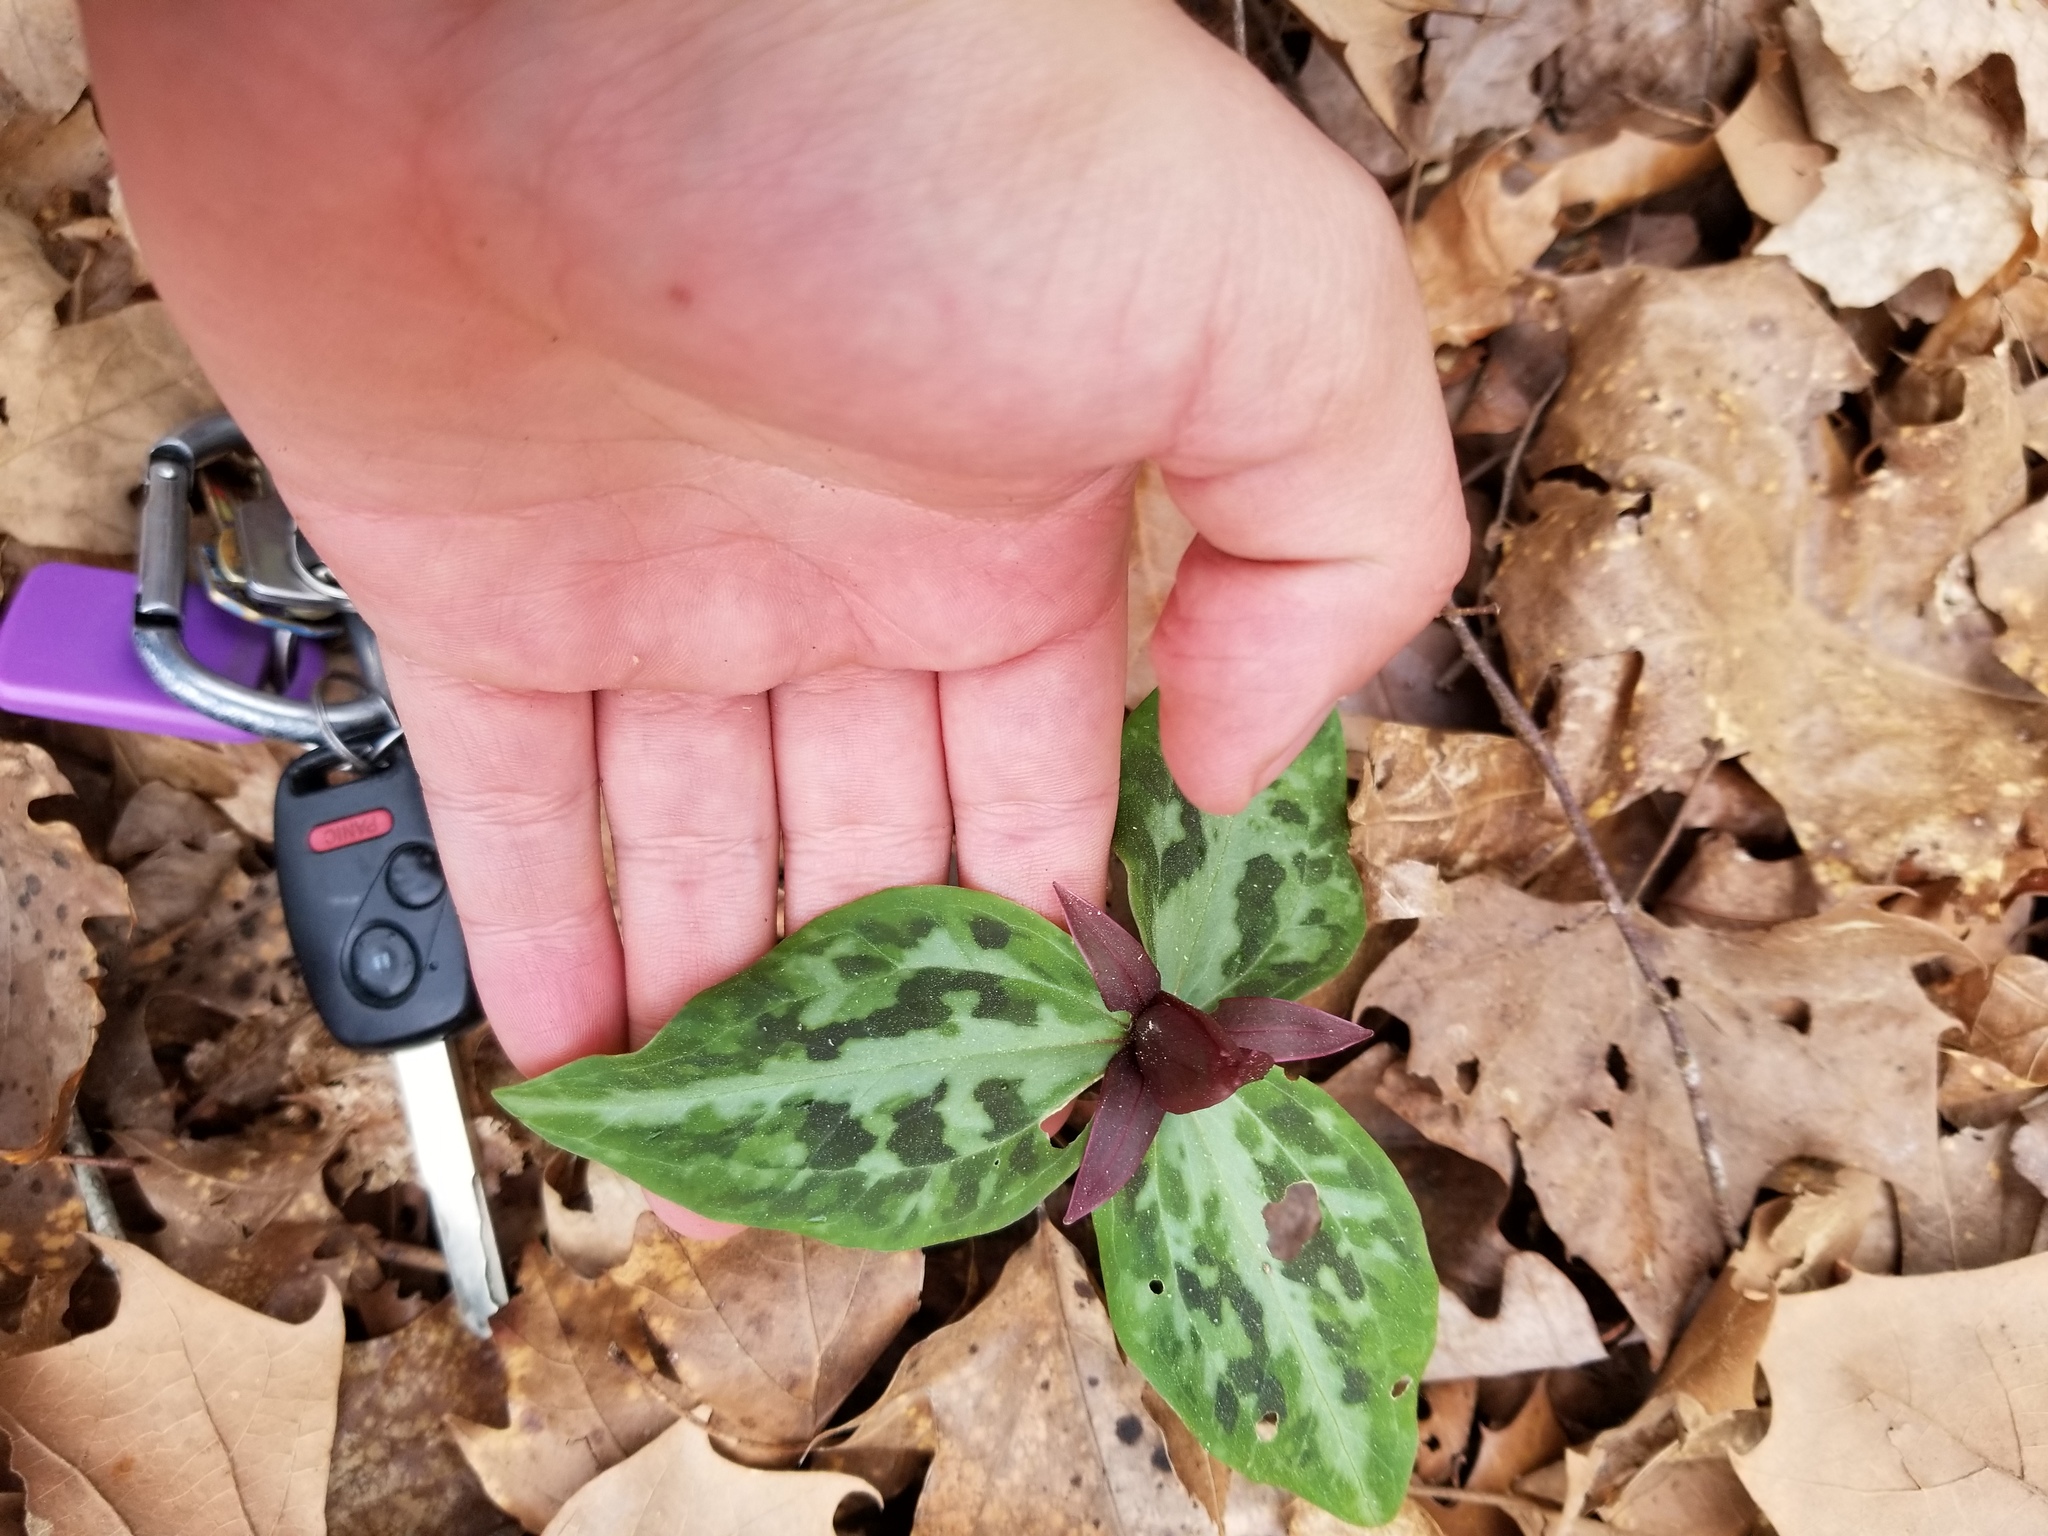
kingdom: Plantae
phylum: Tracheophyta
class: Liliopsida
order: Liliales
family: Melanthiaceae
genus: Trillium
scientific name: Trillium reliquum
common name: Relict trillium
